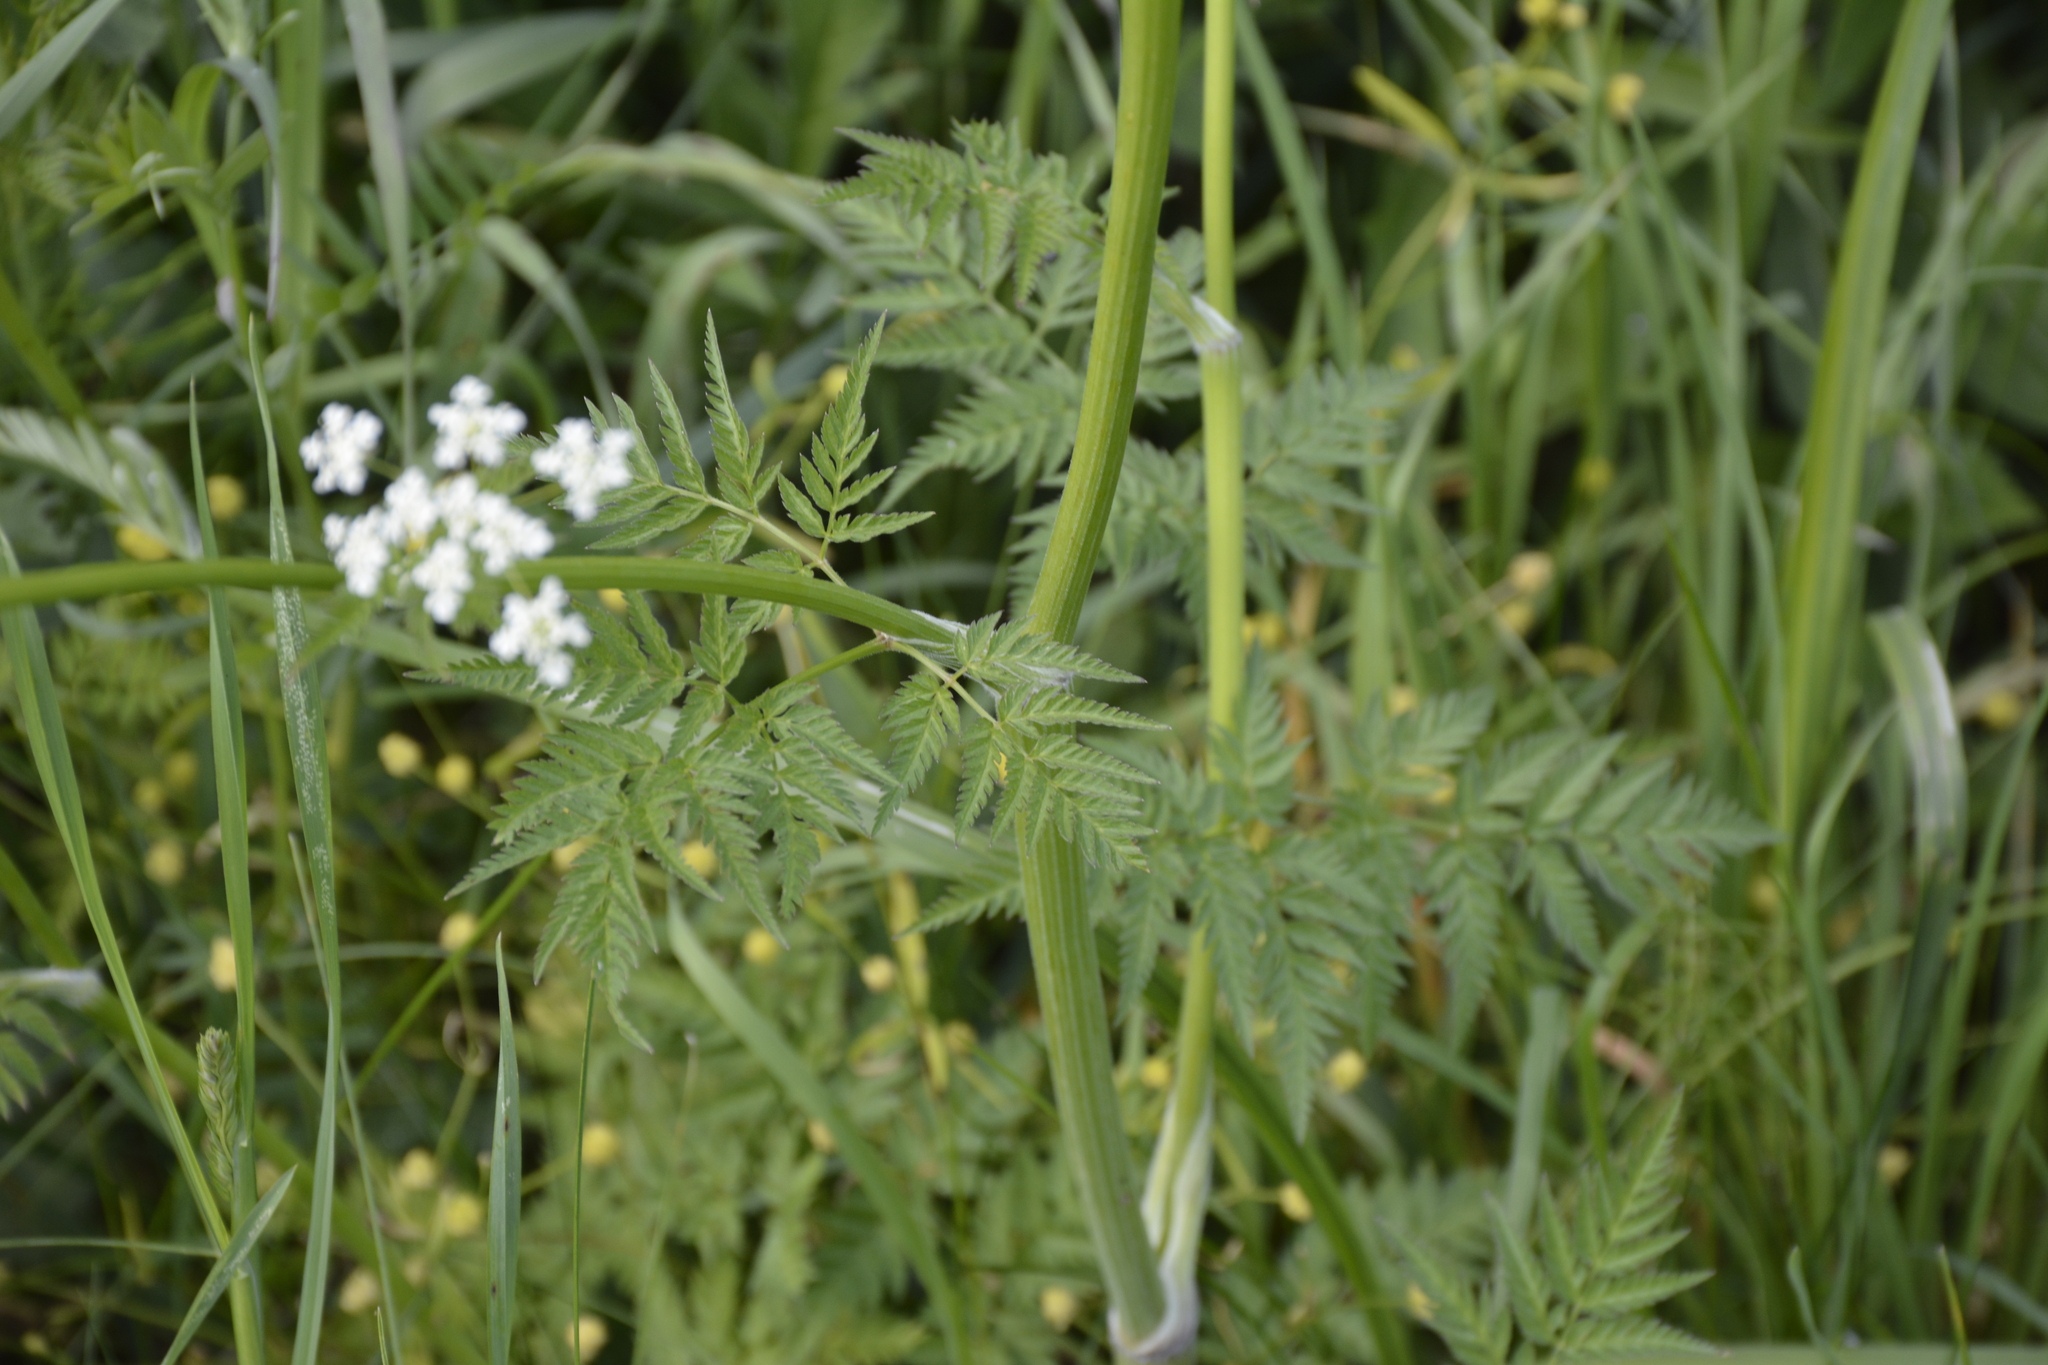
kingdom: Plantae
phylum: Tracheophyta
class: Magnoliopsida
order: Apiales
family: Apiaceae
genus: Anthriscus
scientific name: Anthriscus sylvestris
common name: Cow parsley
